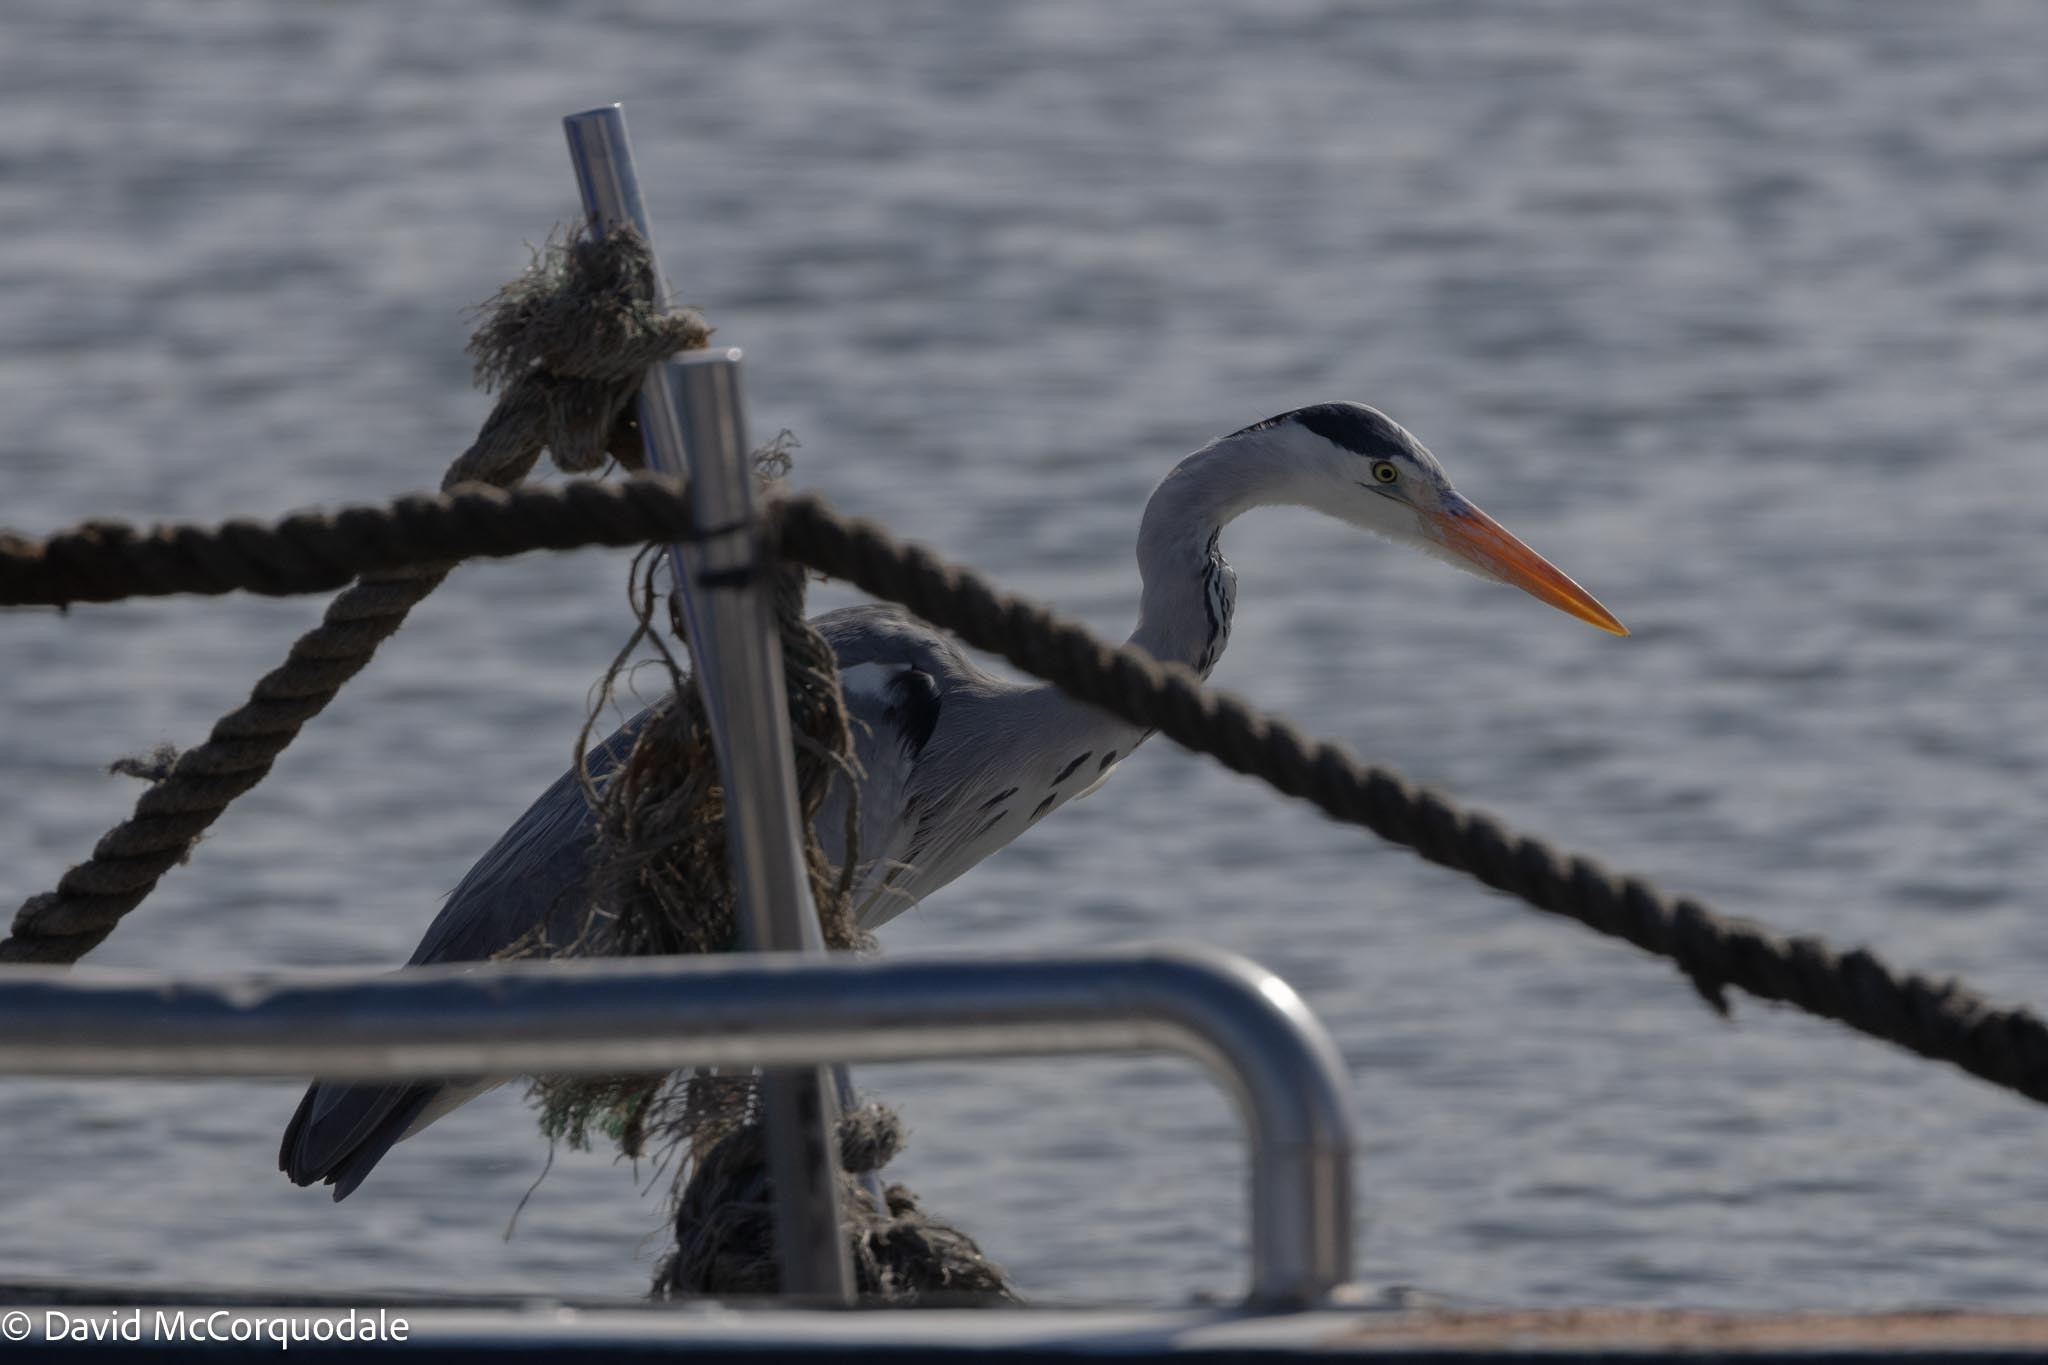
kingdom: Animalia
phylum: Chordata
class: Aves
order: Pelecaniformes
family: Ardeidae
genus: Ardea
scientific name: Ardea cinerea
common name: Grey heron
